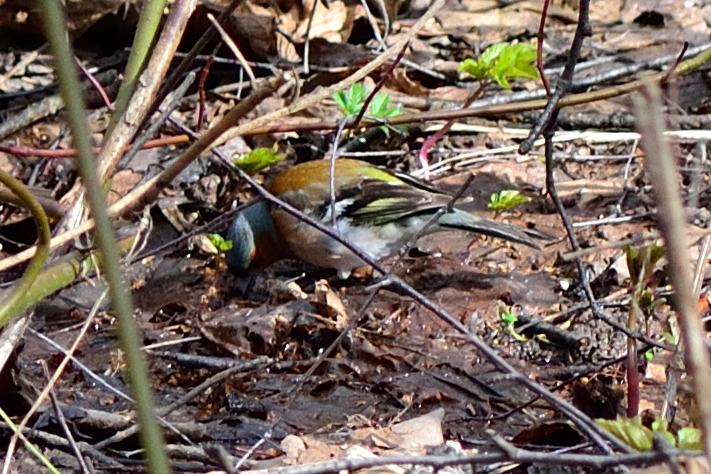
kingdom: Animalia
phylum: Chordata
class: Aves
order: Passeriformes
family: Fringillidae
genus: Fringilla
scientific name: Fringilla coelebs
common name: Common chaffinch
